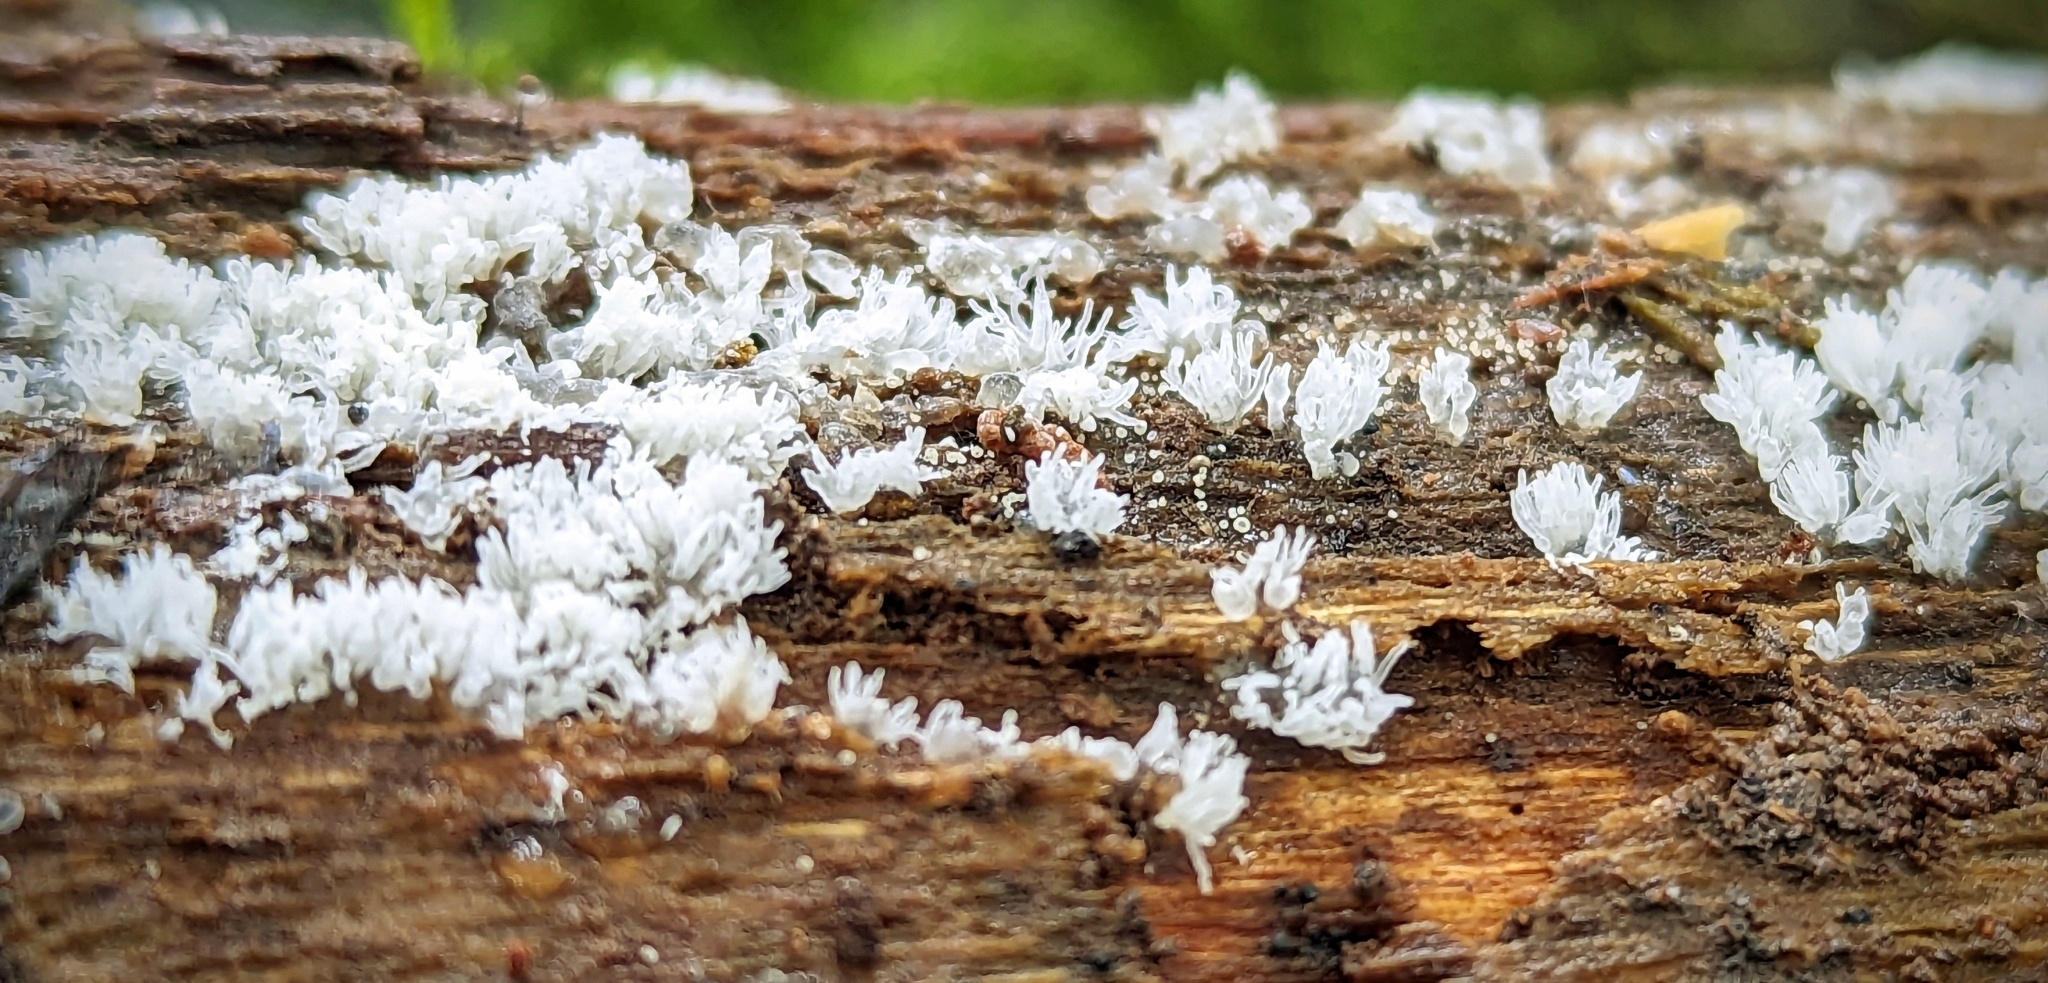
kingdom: Protozoa
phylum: Mycetozoa
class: Protosteliomycetes
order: Ceratiomyxales
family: Ceratiomyxaceae
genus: Ceratiomyxa
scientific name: Ceratiomyxa fruticulosa
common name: Honeycomb coral slime mold
